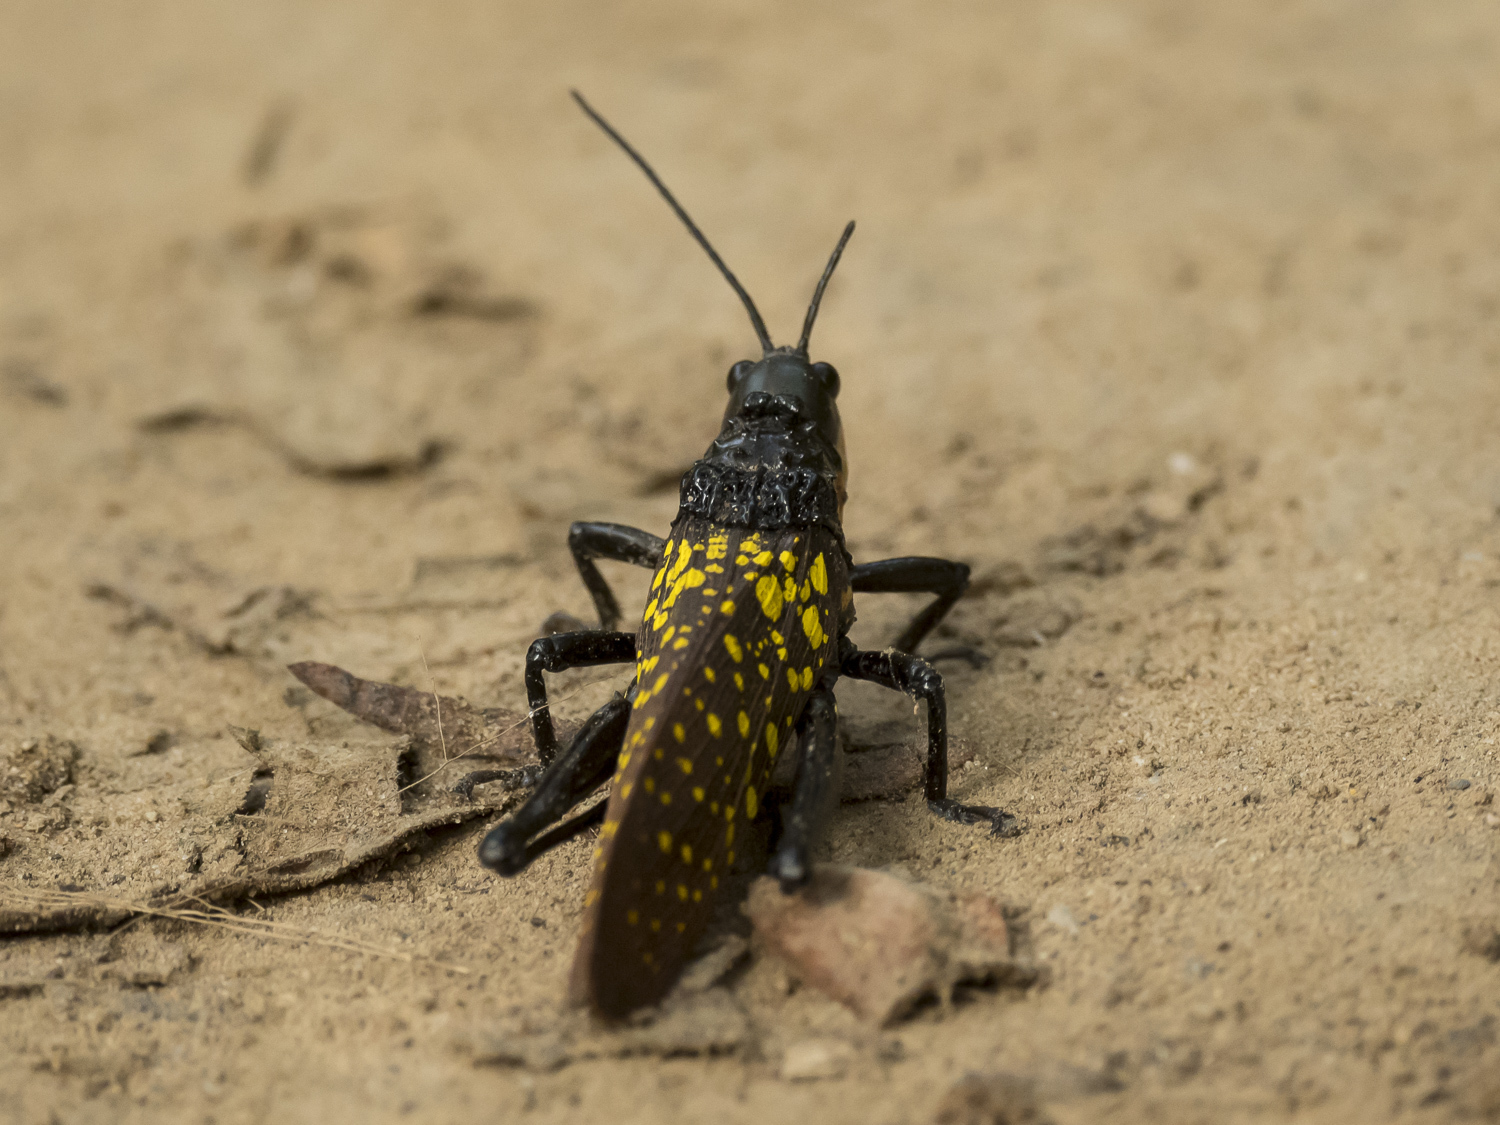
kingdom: Animalia
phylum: Arthropoda
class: Insecta
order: Orthoptera
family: Pyrgomorphidae
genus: Aularches
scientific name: Aularches miliaris
